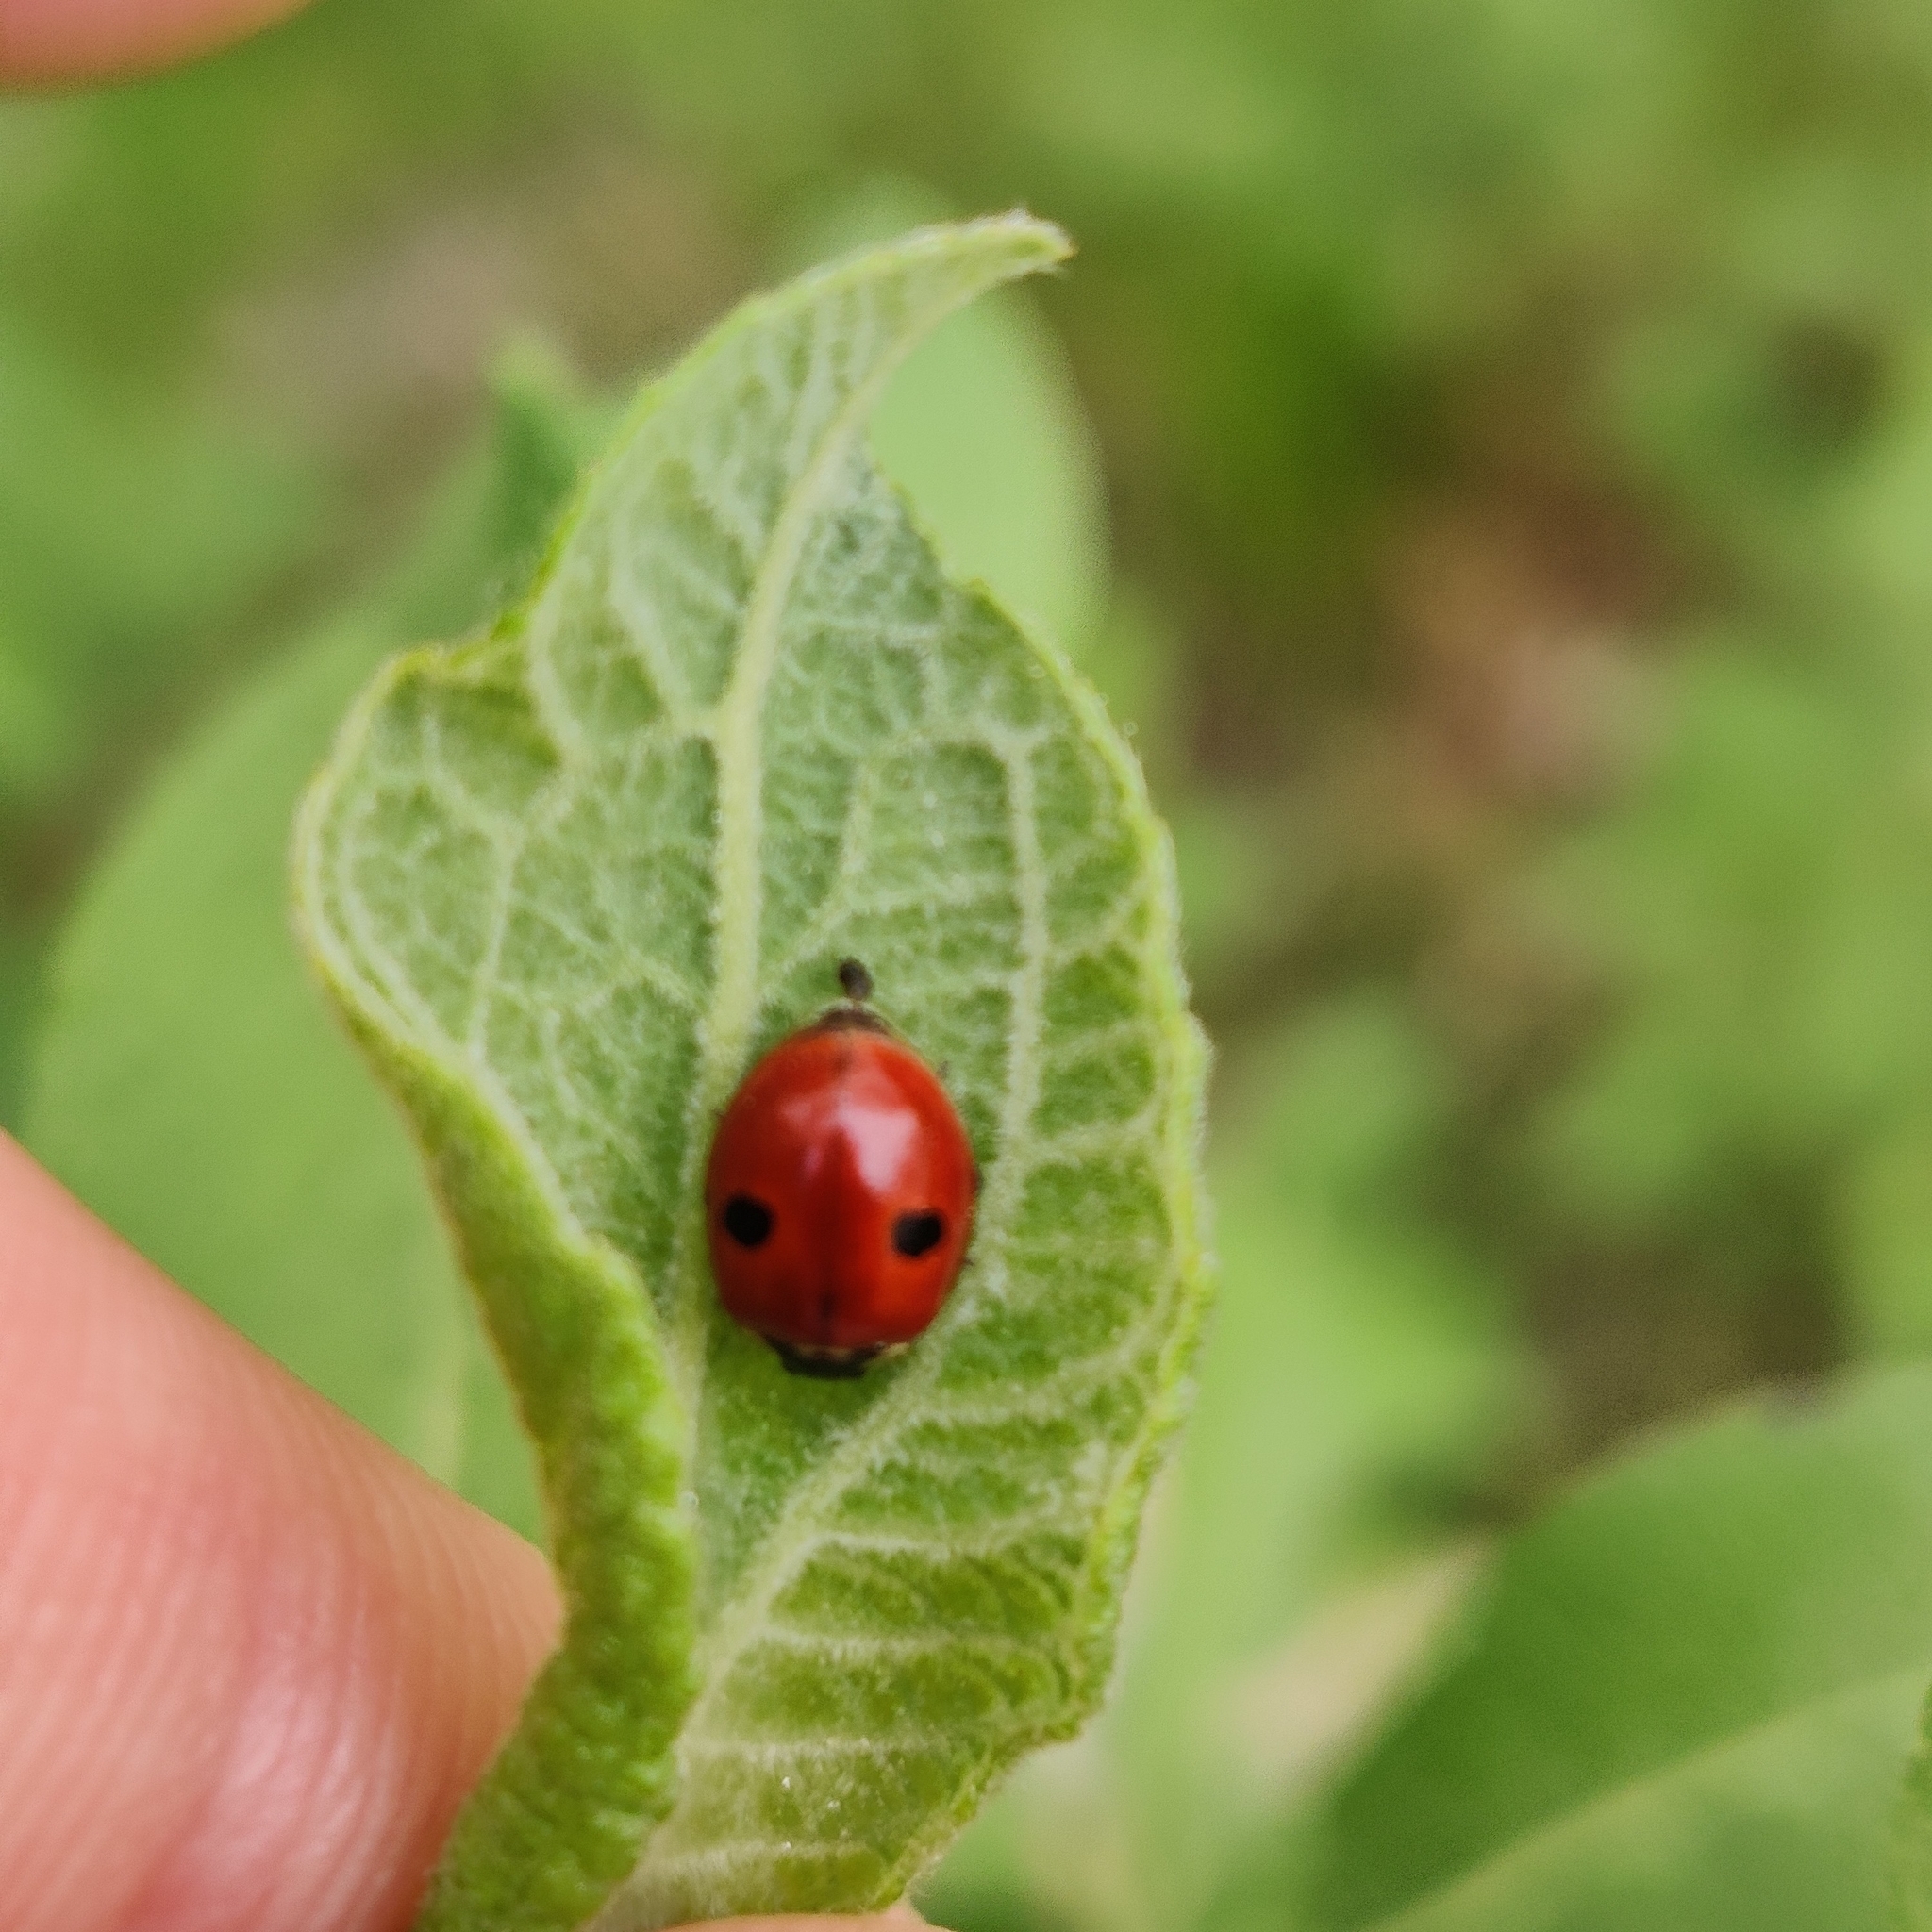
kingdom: Animalia
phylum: Arthropoda
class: Insecta
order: Coleoptera
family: Coccinellidae
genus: Adalia
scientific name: Adalia bipunctata
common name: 2-spot ladybird
